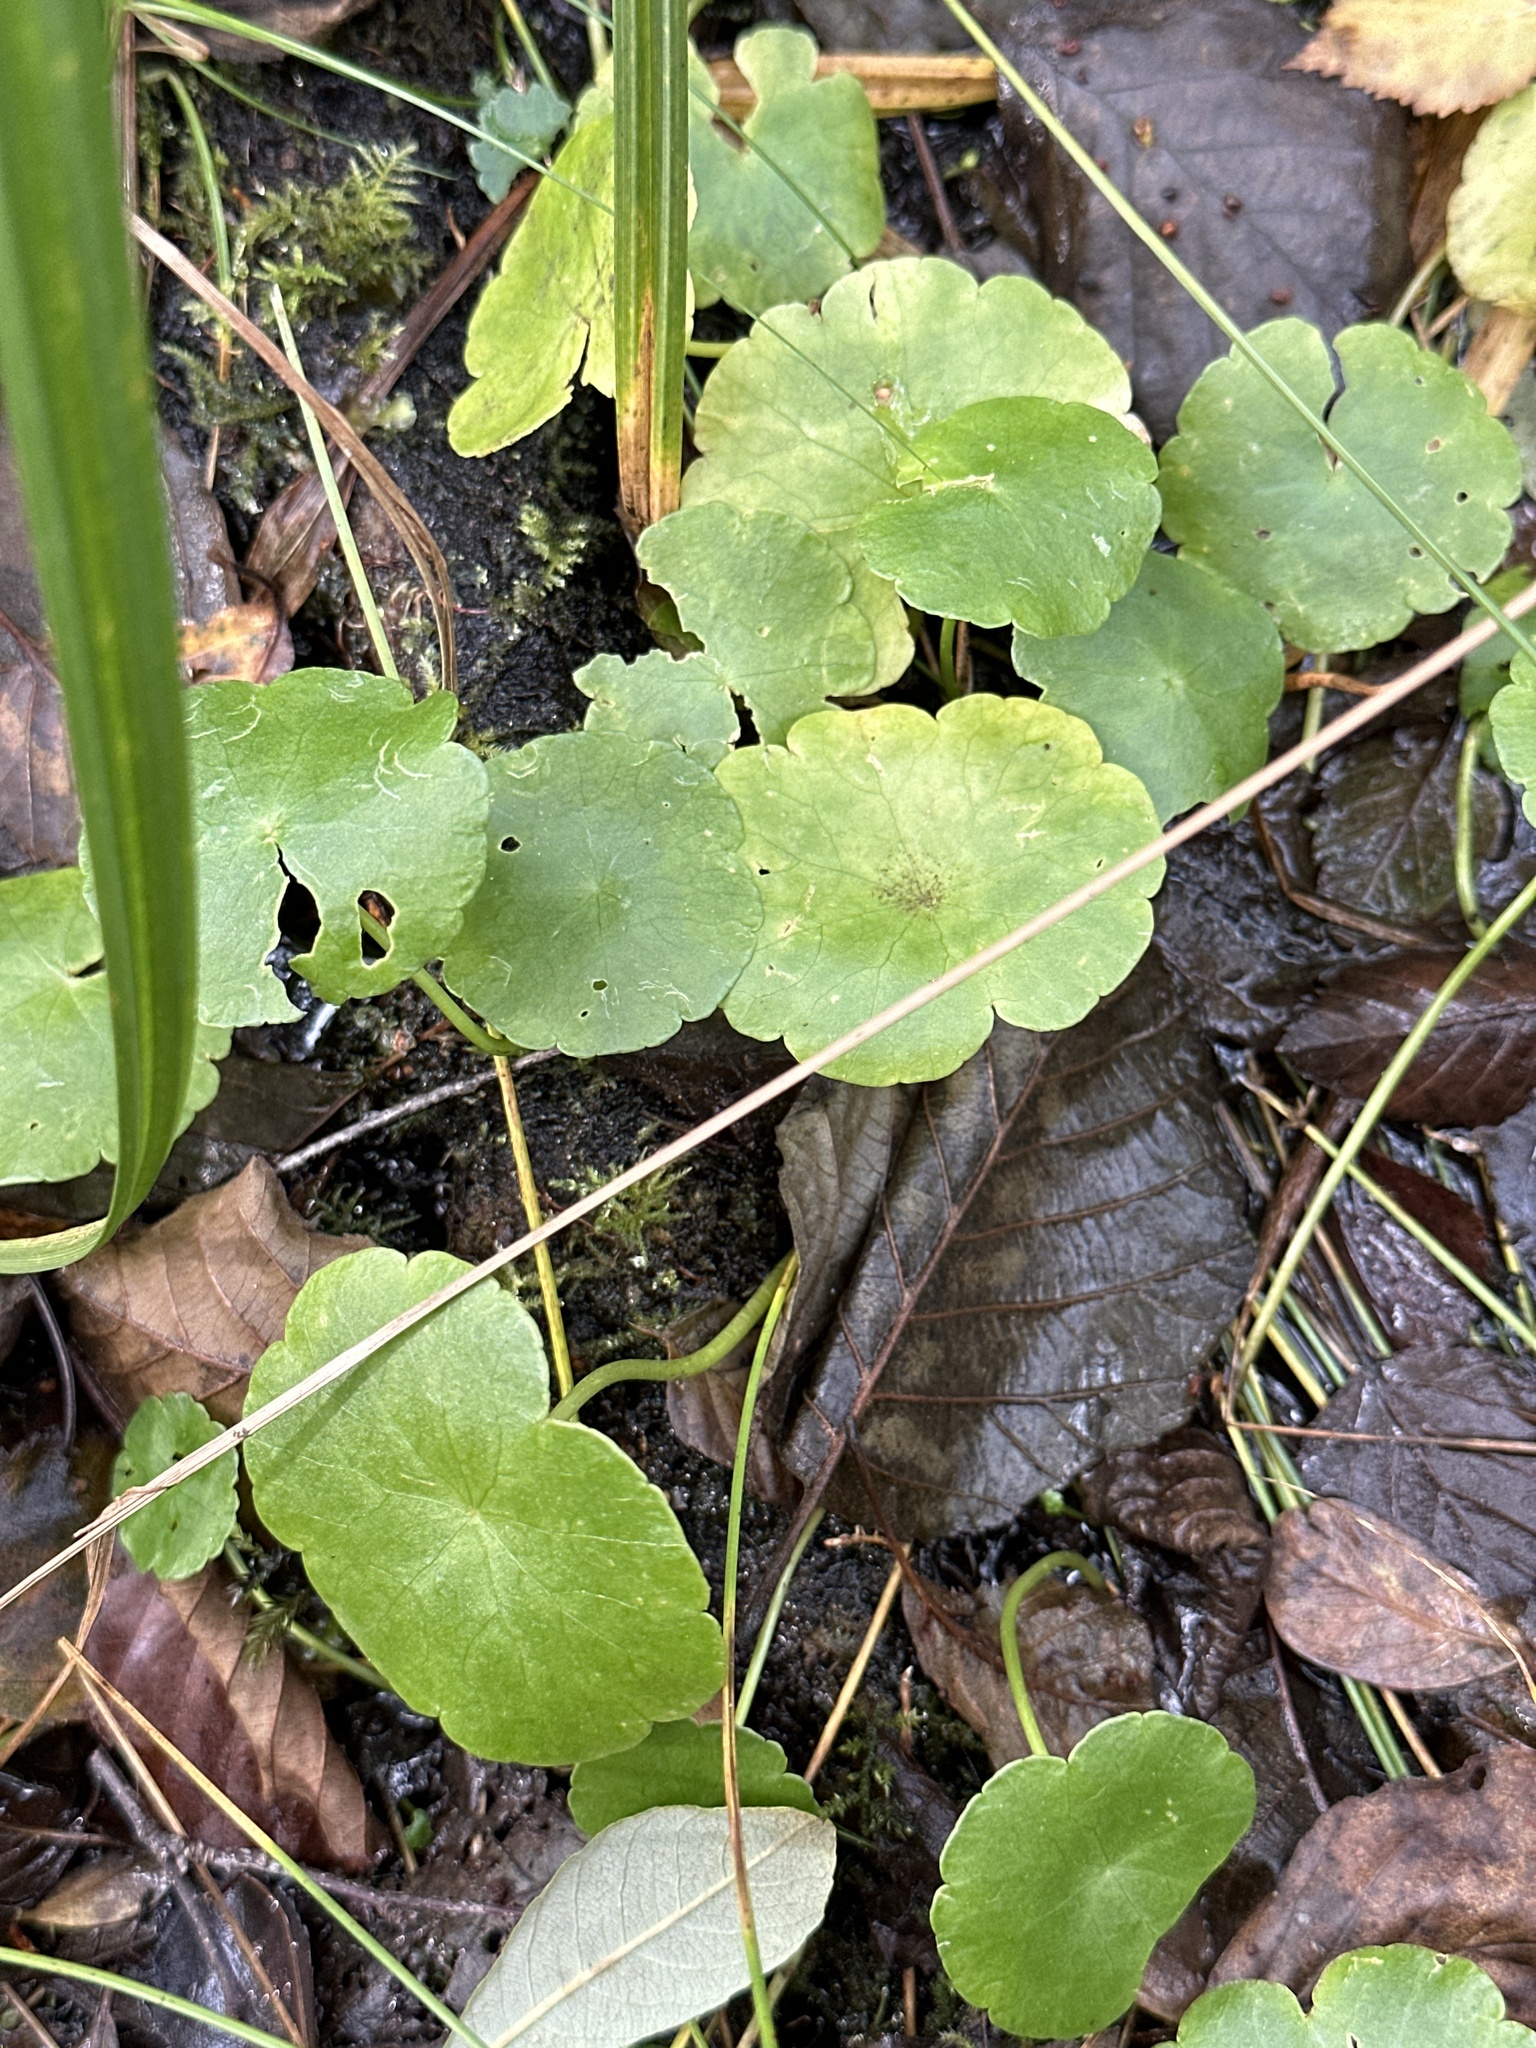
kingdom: Plantae
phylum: Tracheophyta
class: Magnoliopsida
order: Apiales
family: Araliaceae
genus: Hydrocotyle
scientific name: Hydrocotyle vulgaris
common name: Marsh pennywort
